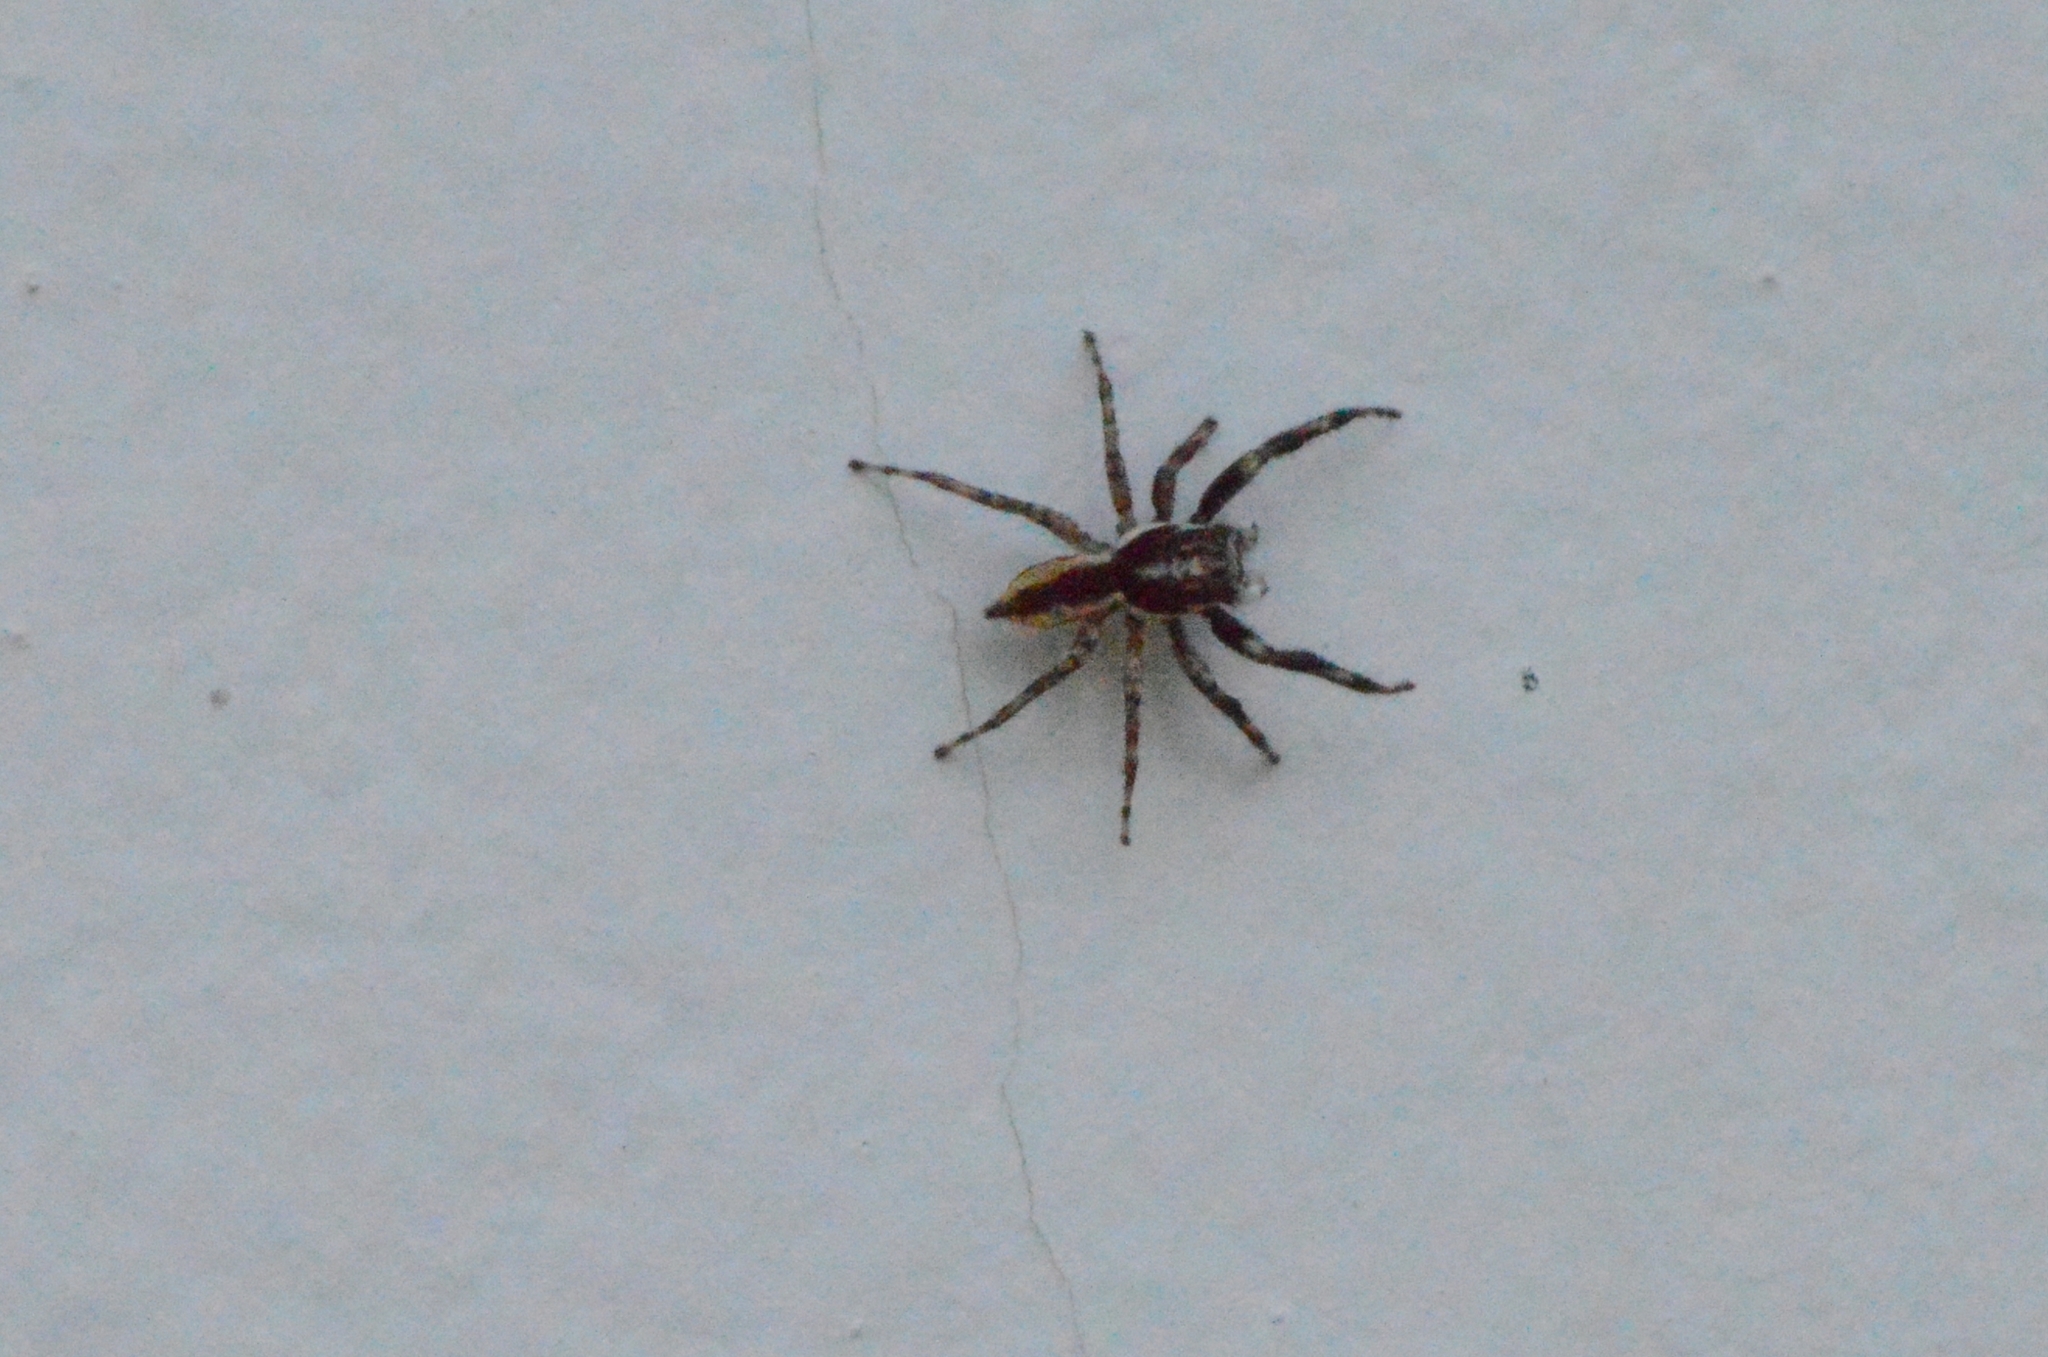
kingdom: Animalia
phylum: Arthropoda
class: Arachnida
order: Araneae
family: Salticidae
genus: Menemerus
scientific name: Menemerus bivittatus
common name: Gray wall jumper
